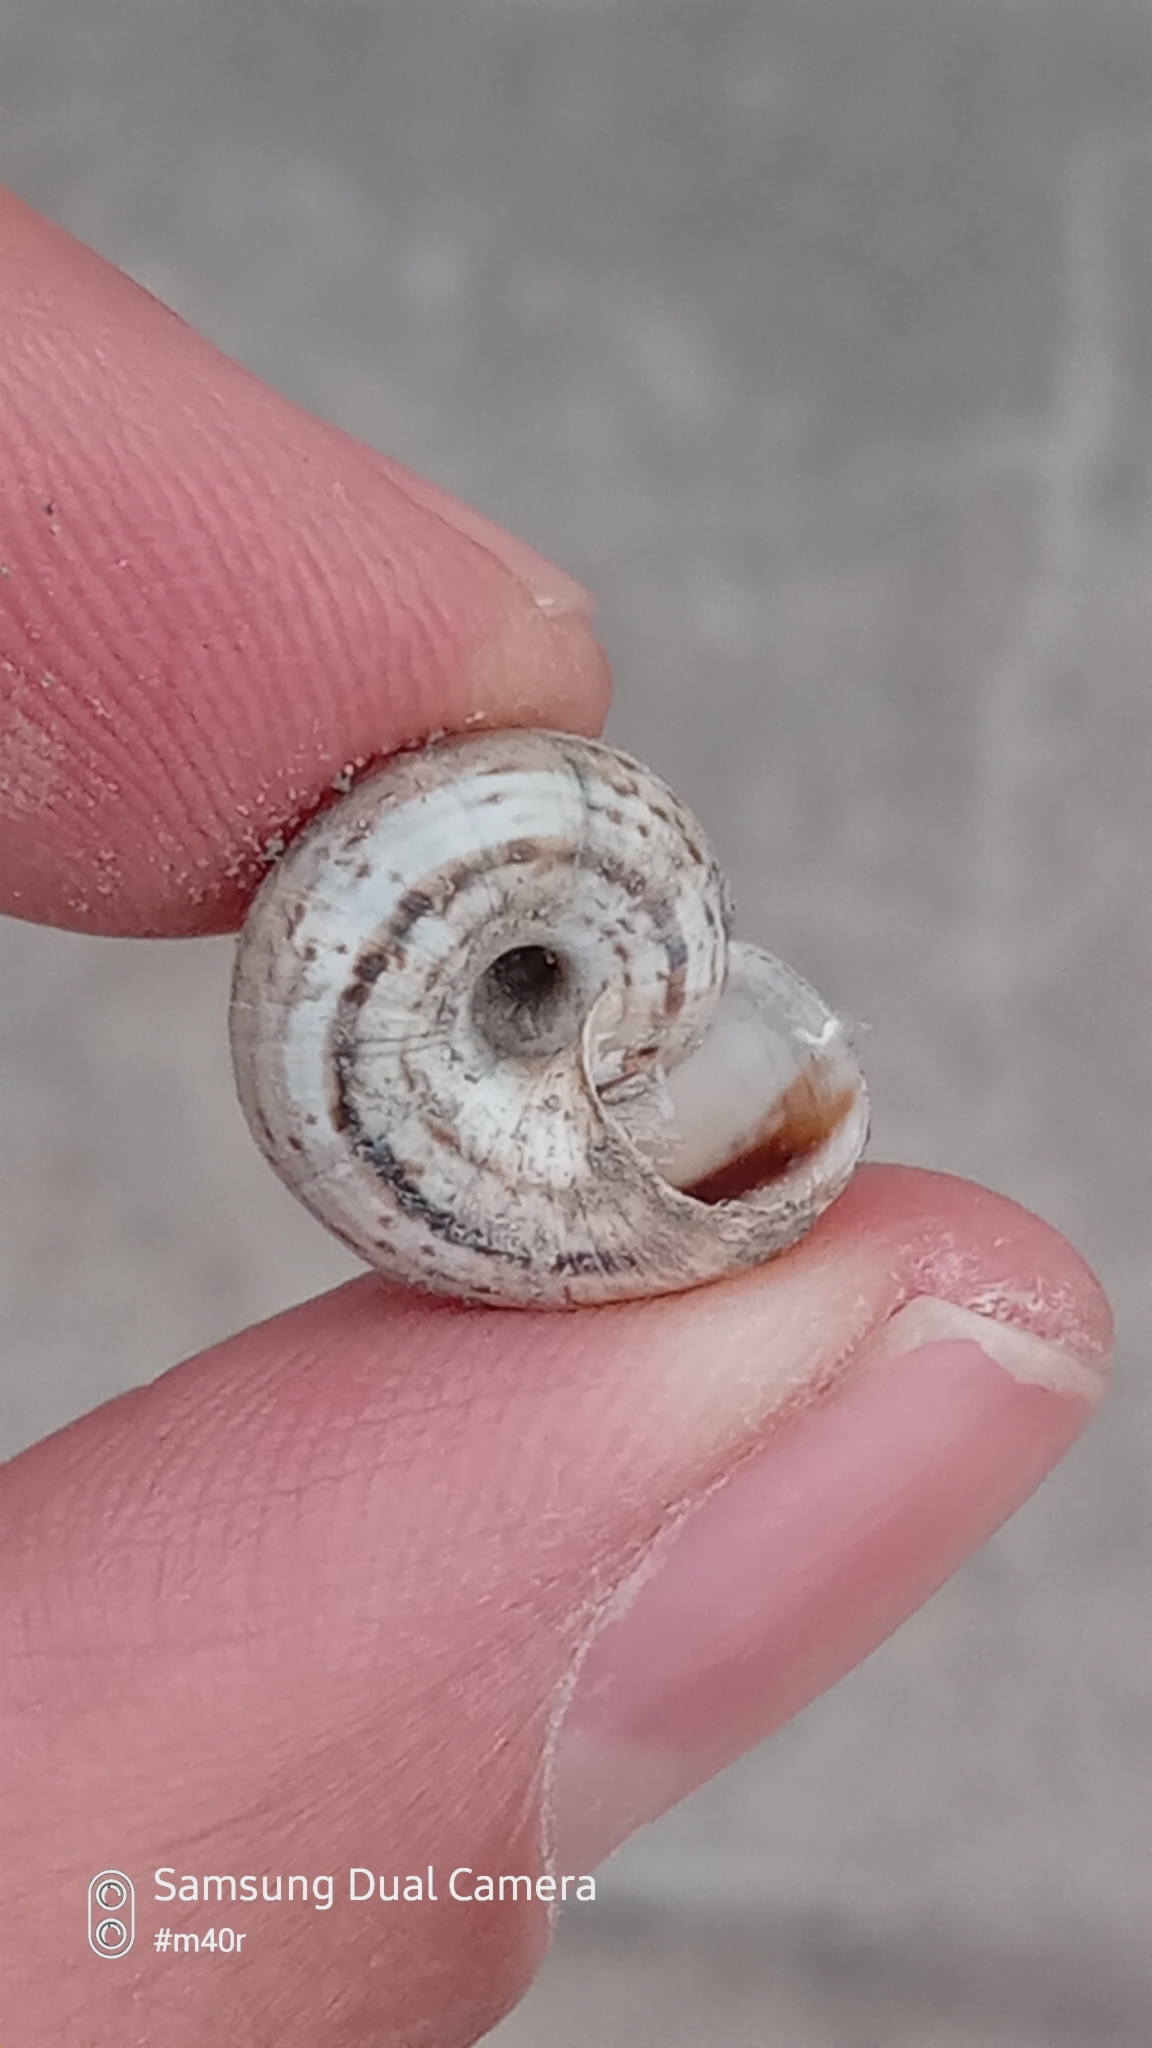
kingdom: Animalia
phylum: Mollusca
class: Gastropoda
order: Stylommatophora
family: Geomitridae
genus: Xeropicta
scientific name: Xeropicta derbentina
